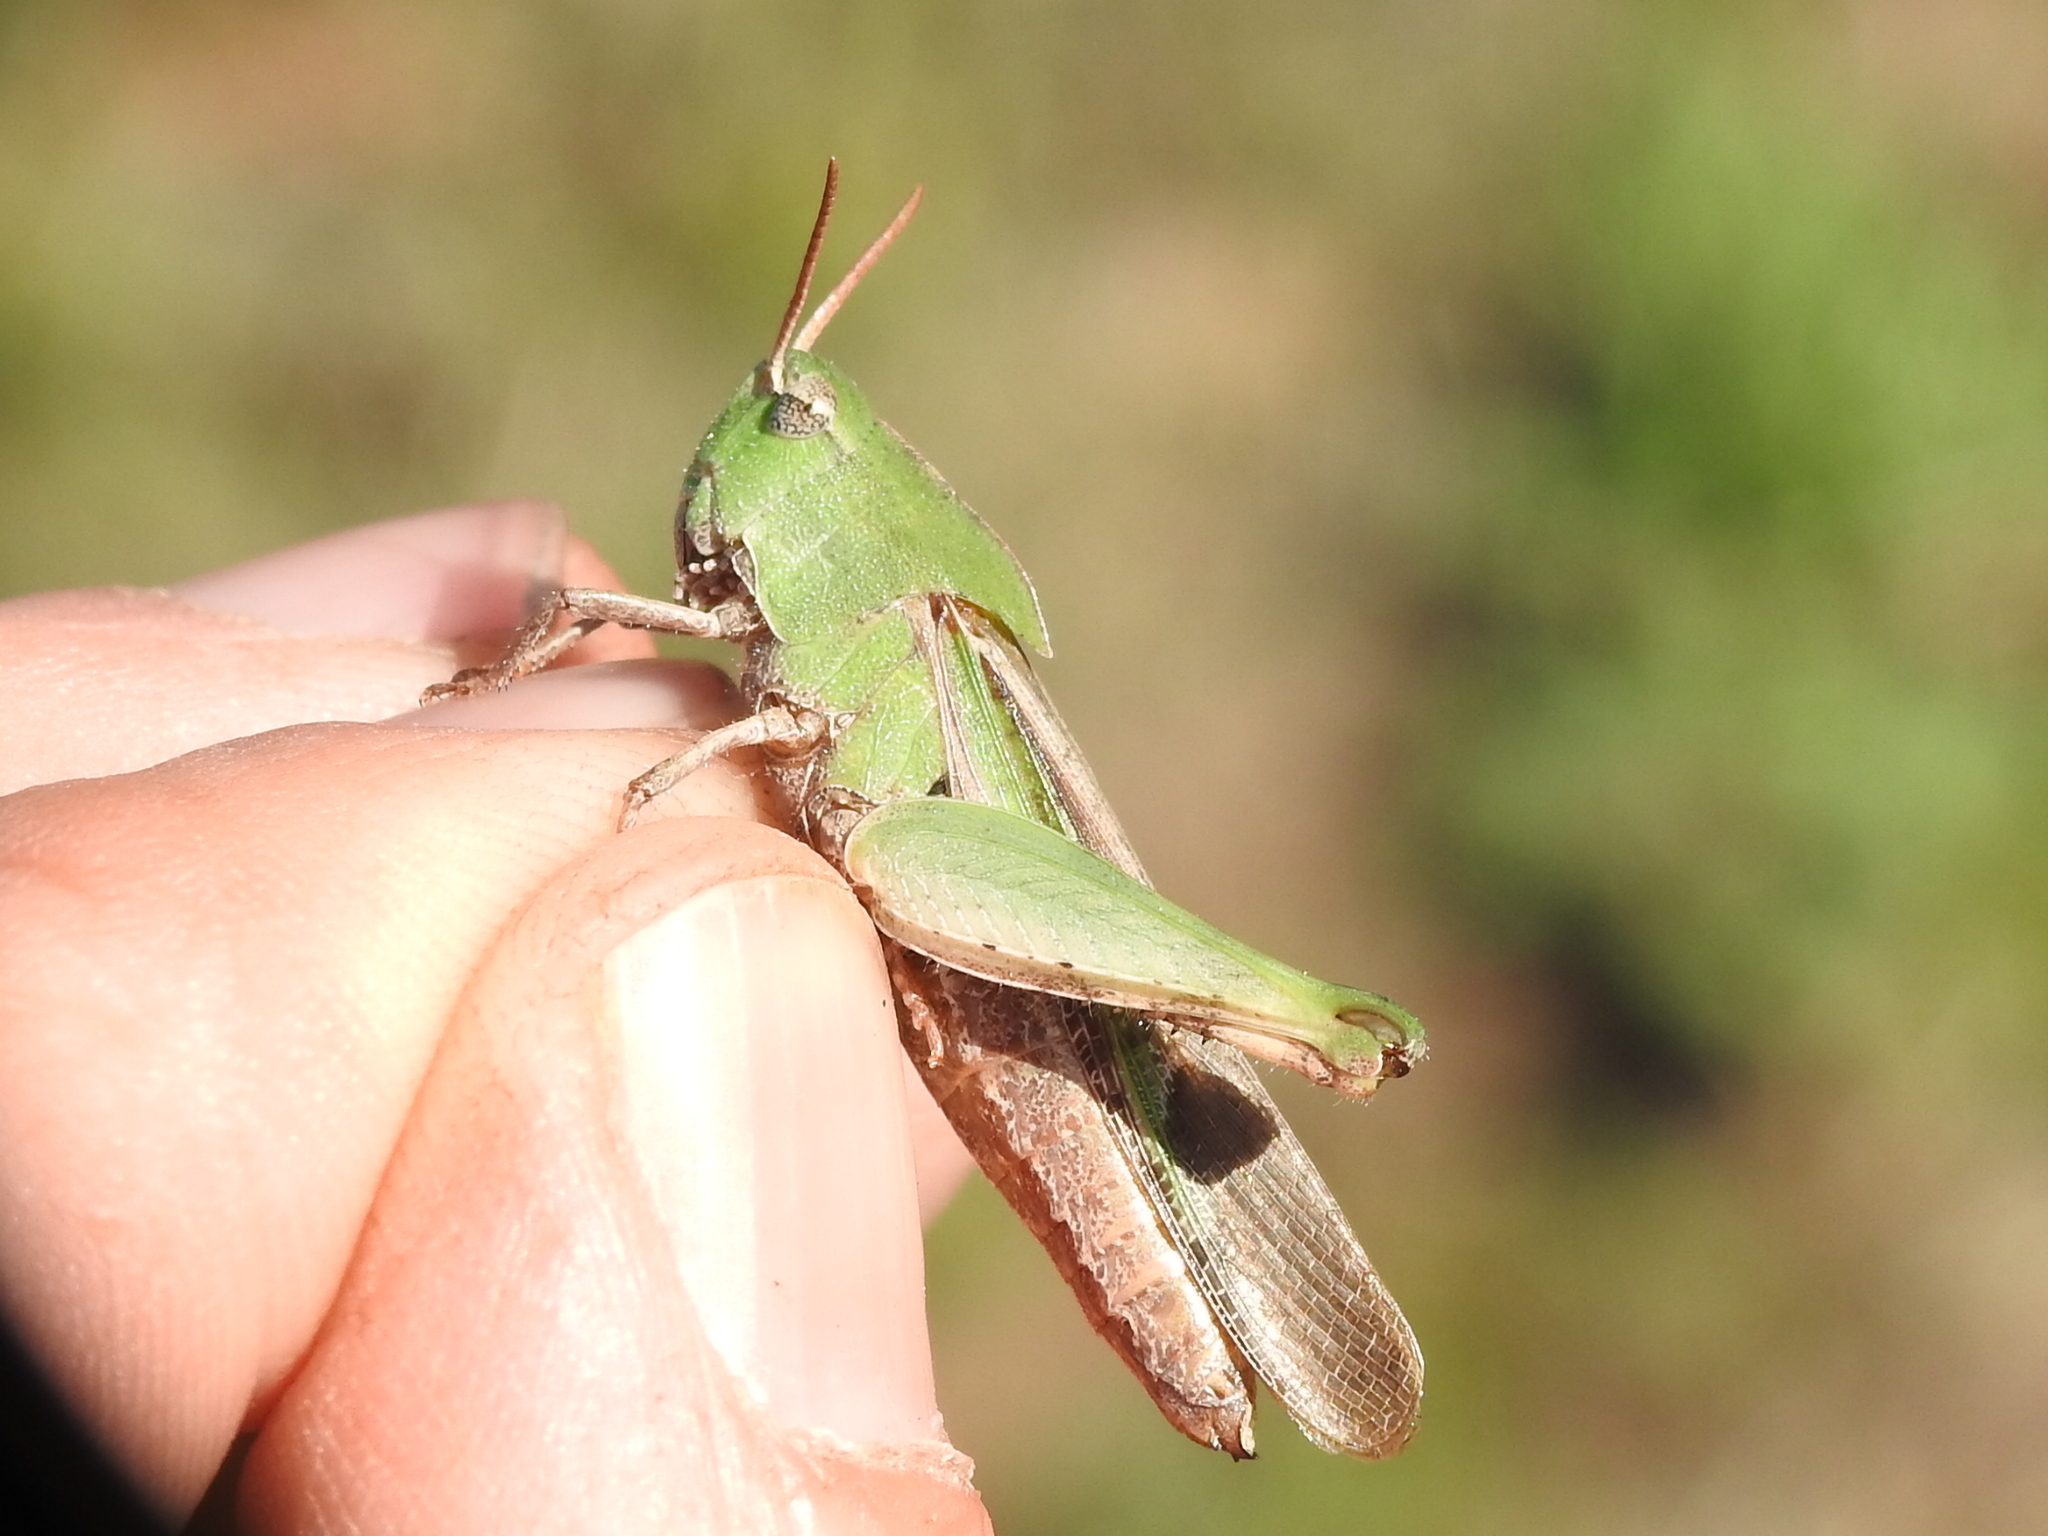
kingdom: Animalia
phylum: Arthropoda
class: Insecta
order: Orthoptera
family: Acrididae
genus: Chortophaga
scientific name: Chortophaga viridifasciata
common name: Green-striped grasshopper
